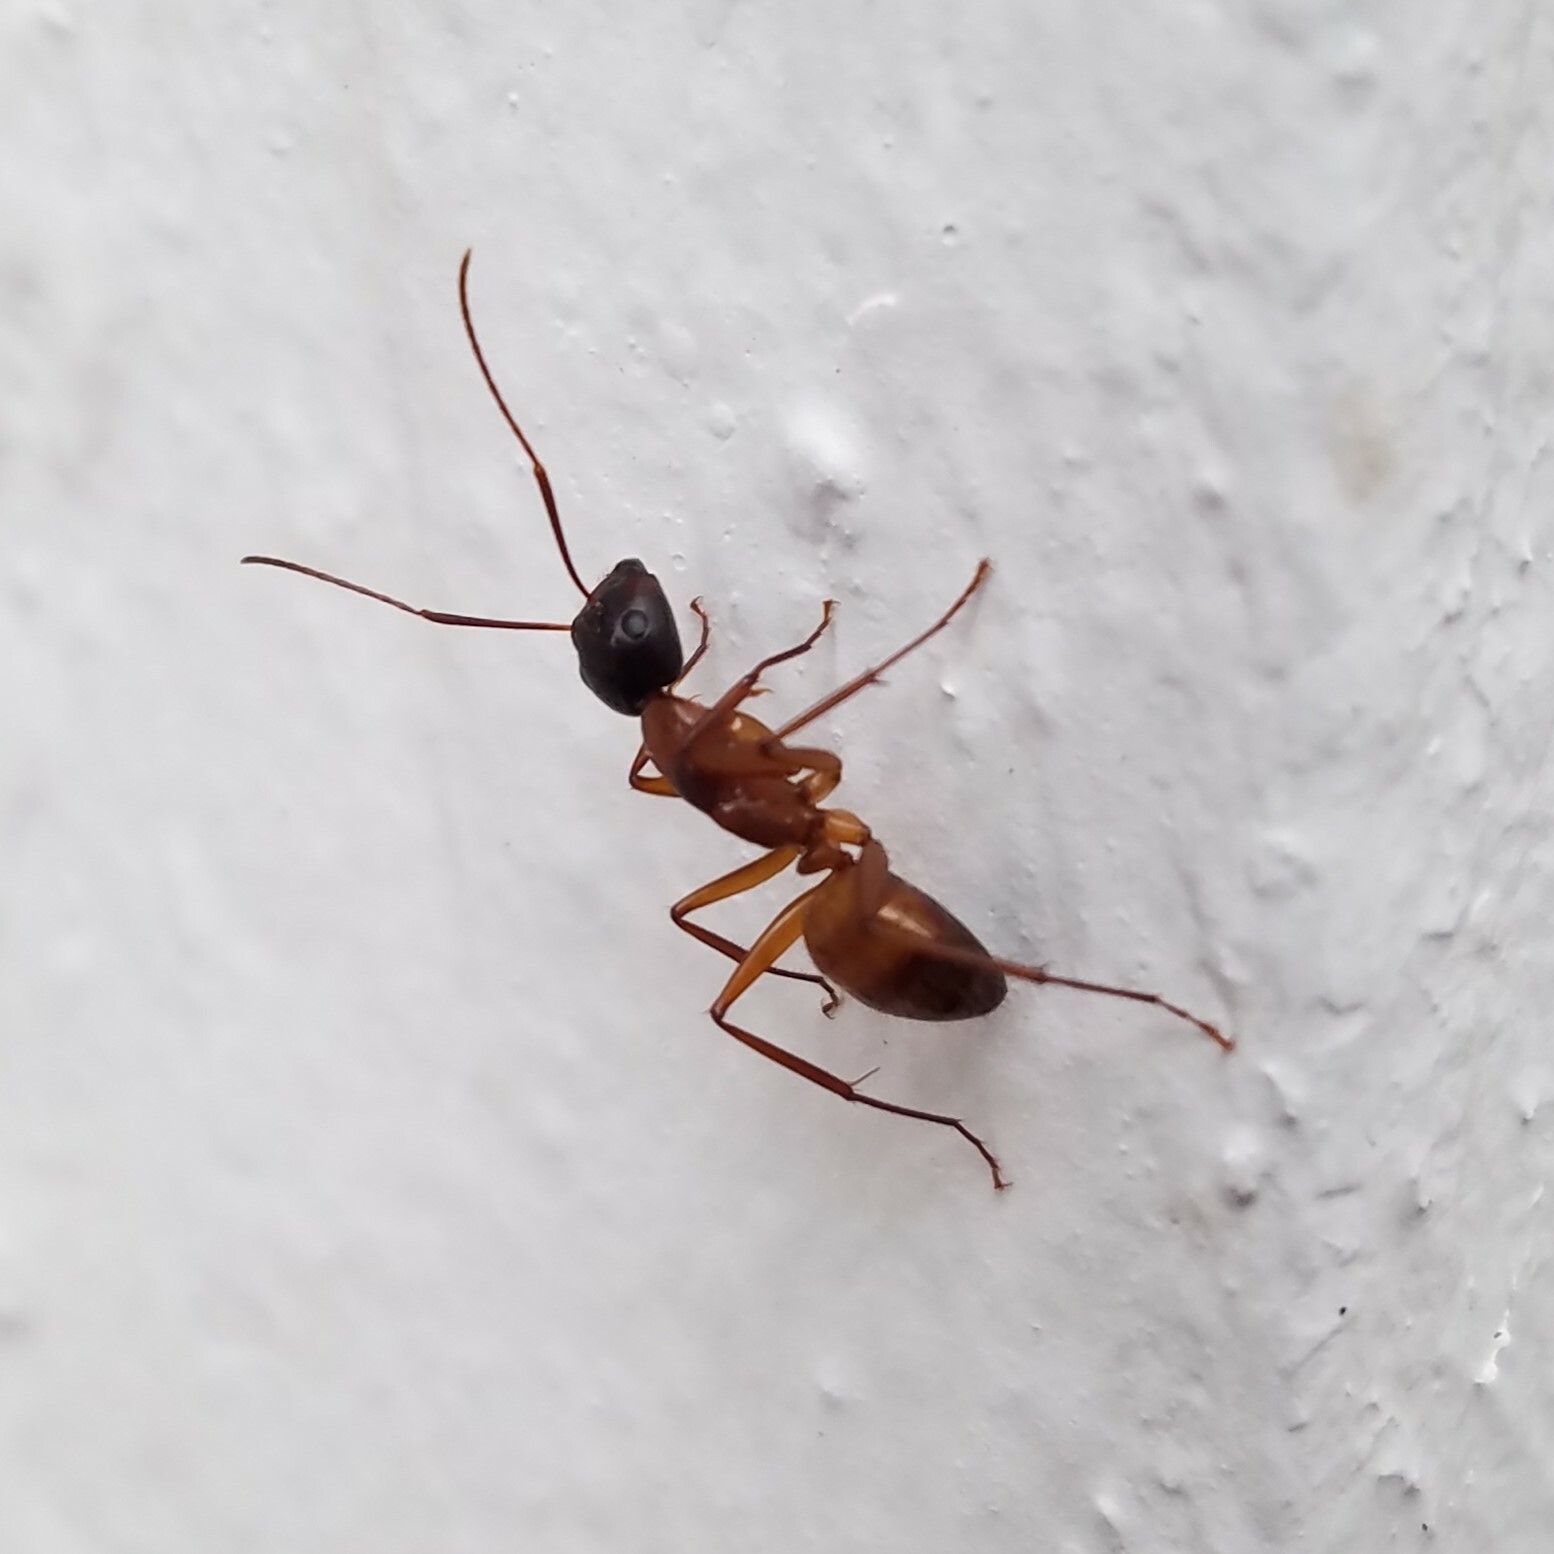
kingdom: Animalia
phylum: Arthropoda
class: Insecta
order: Hymenoptera
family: Formicidae
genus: Camponotus
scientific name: Camponotus americanus
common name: American carpenter ant
